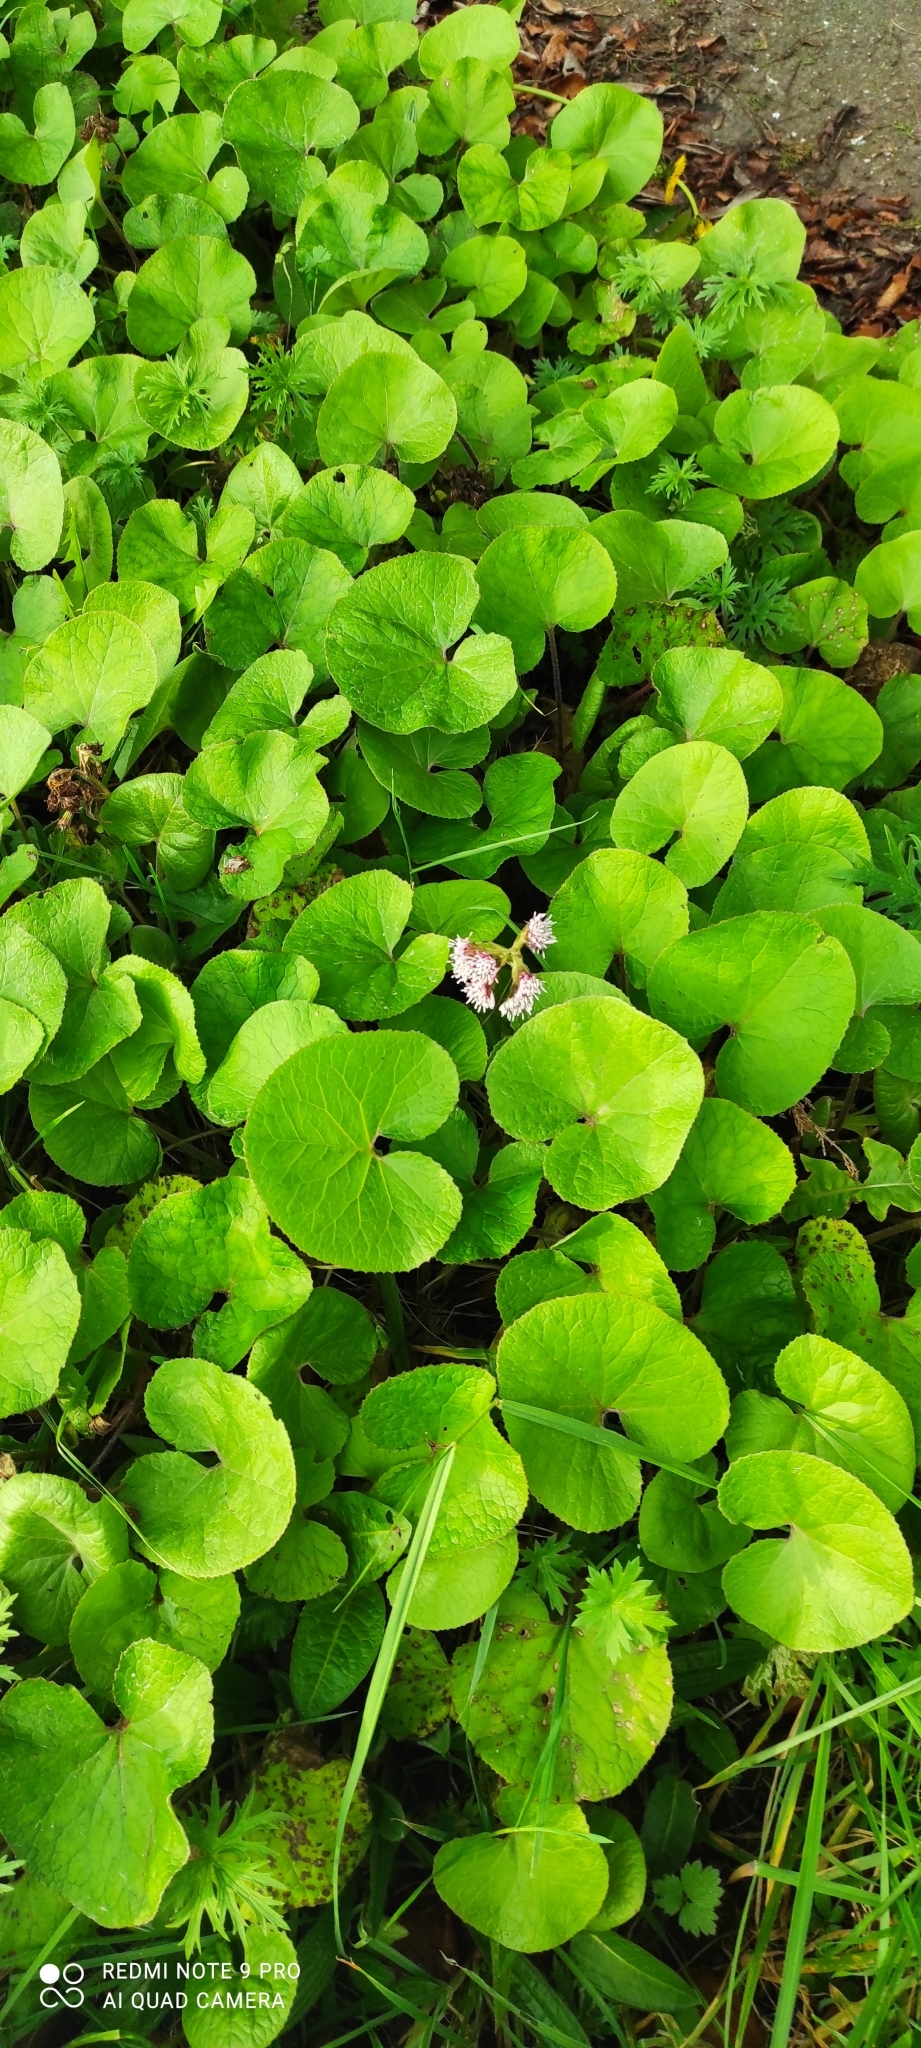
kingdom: Plantae
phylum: Tracheophyta
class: Magnoliopsida
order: Asterales
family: Asteraceae
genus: Petasites
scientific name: Petasites pyrenaicus
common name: Winter heliotrope
